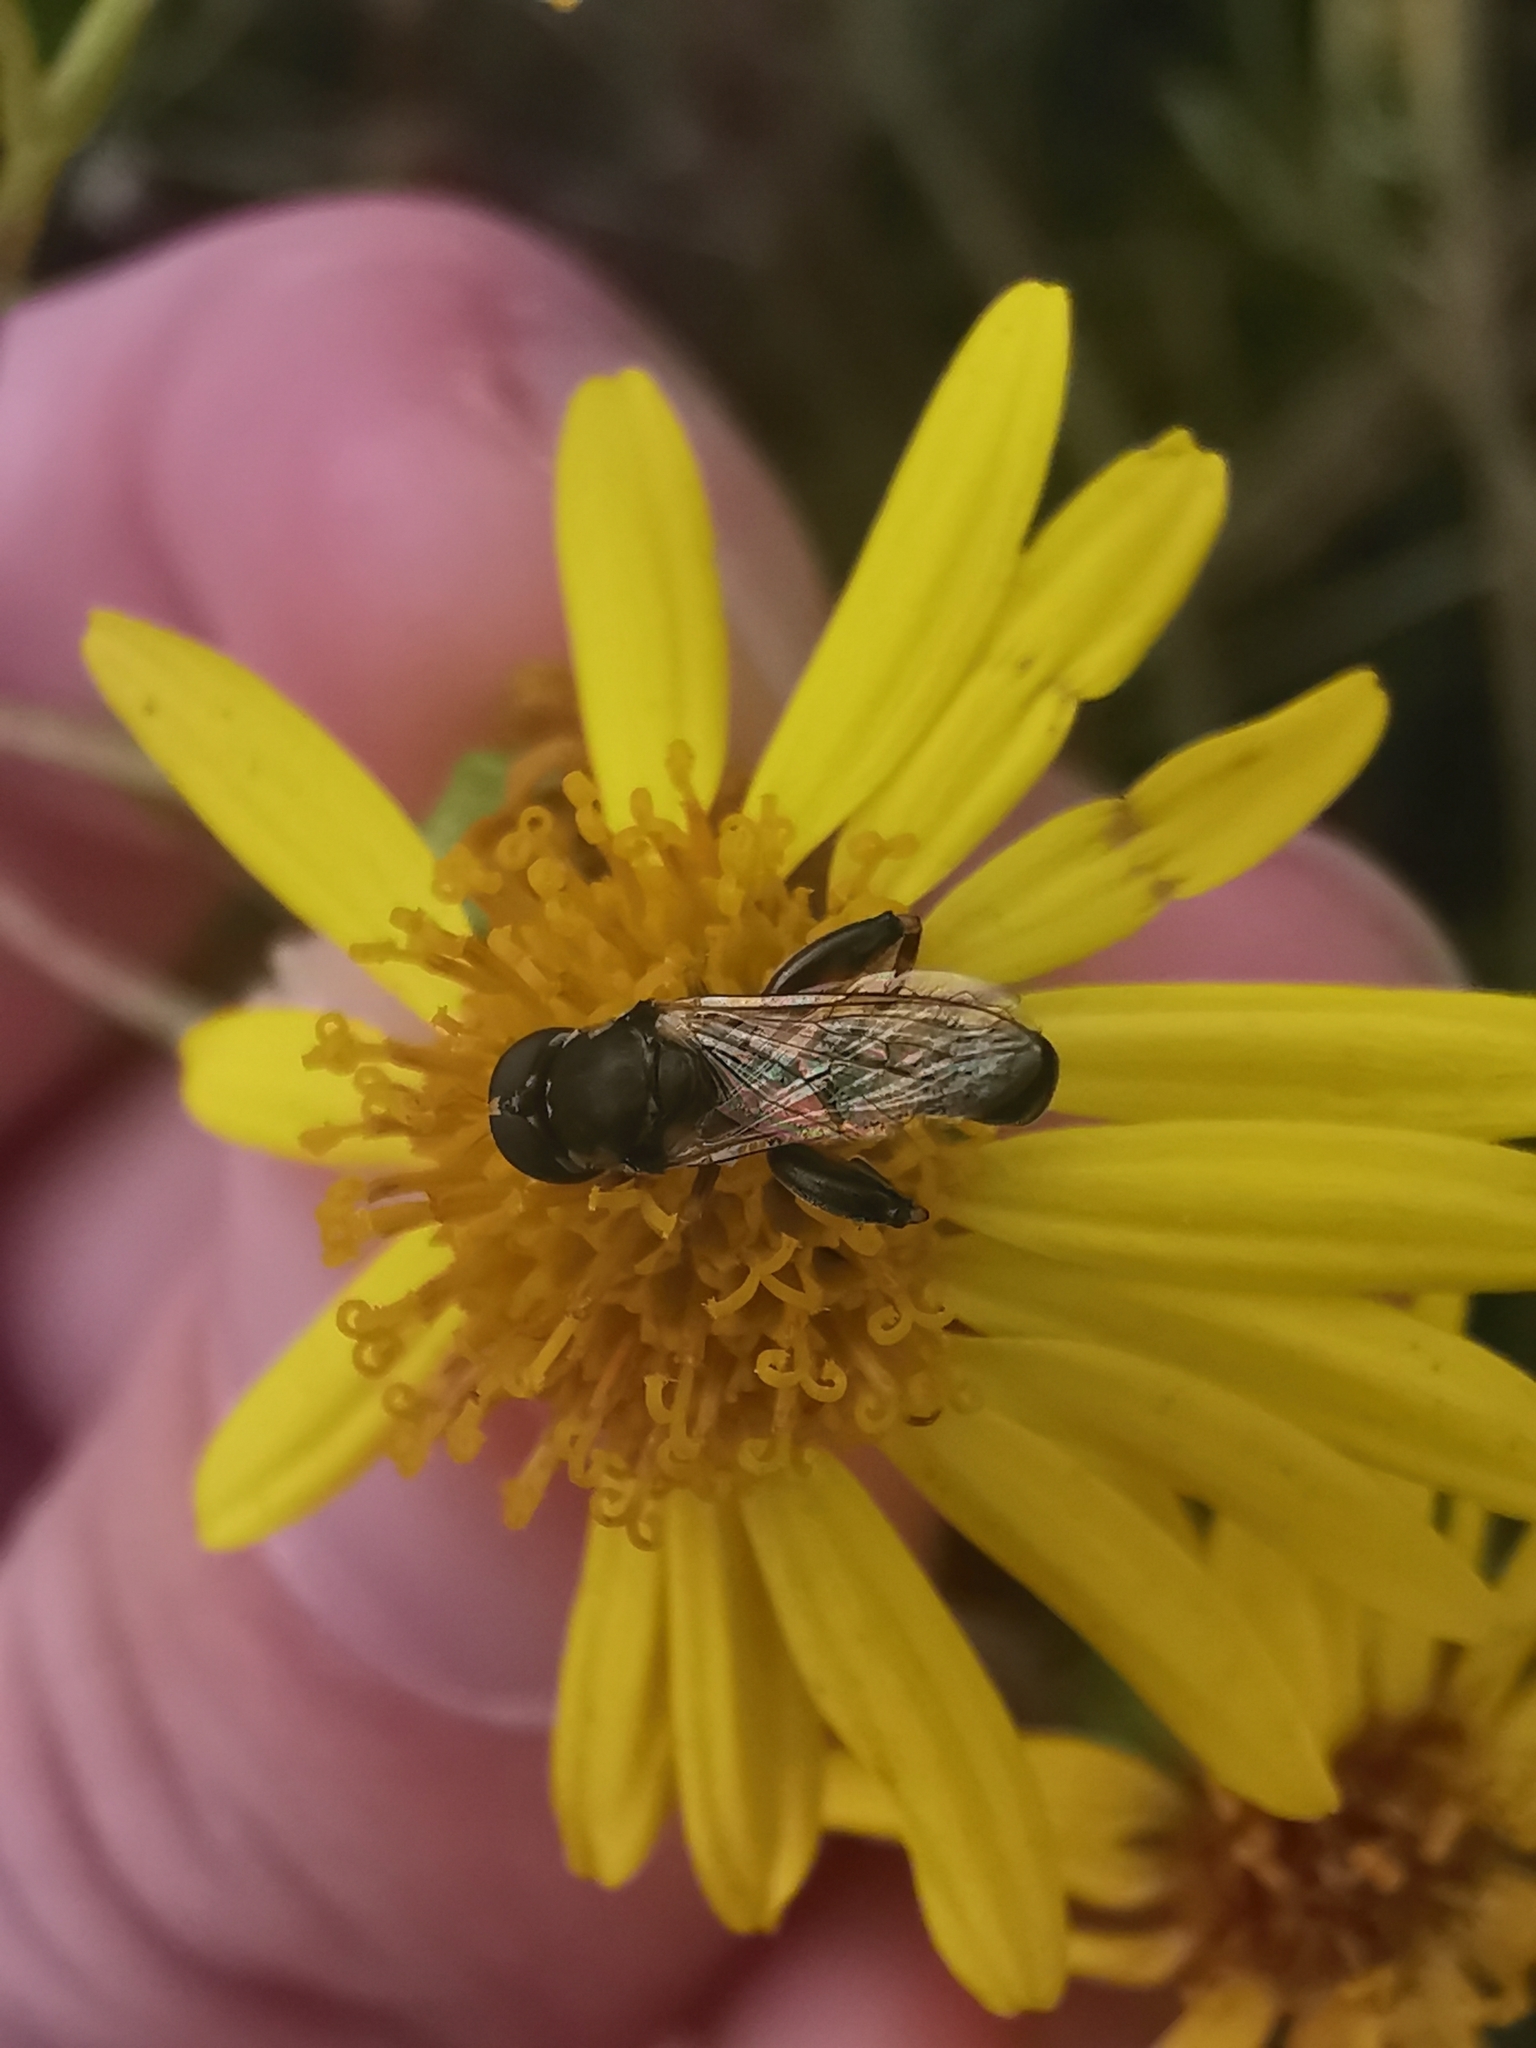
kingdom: Animalia
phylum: Arthropoda
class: Insecta
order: Diptera
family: Syrphidae
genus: Syritta
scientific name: Syritta pipiens
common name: Hover fly
